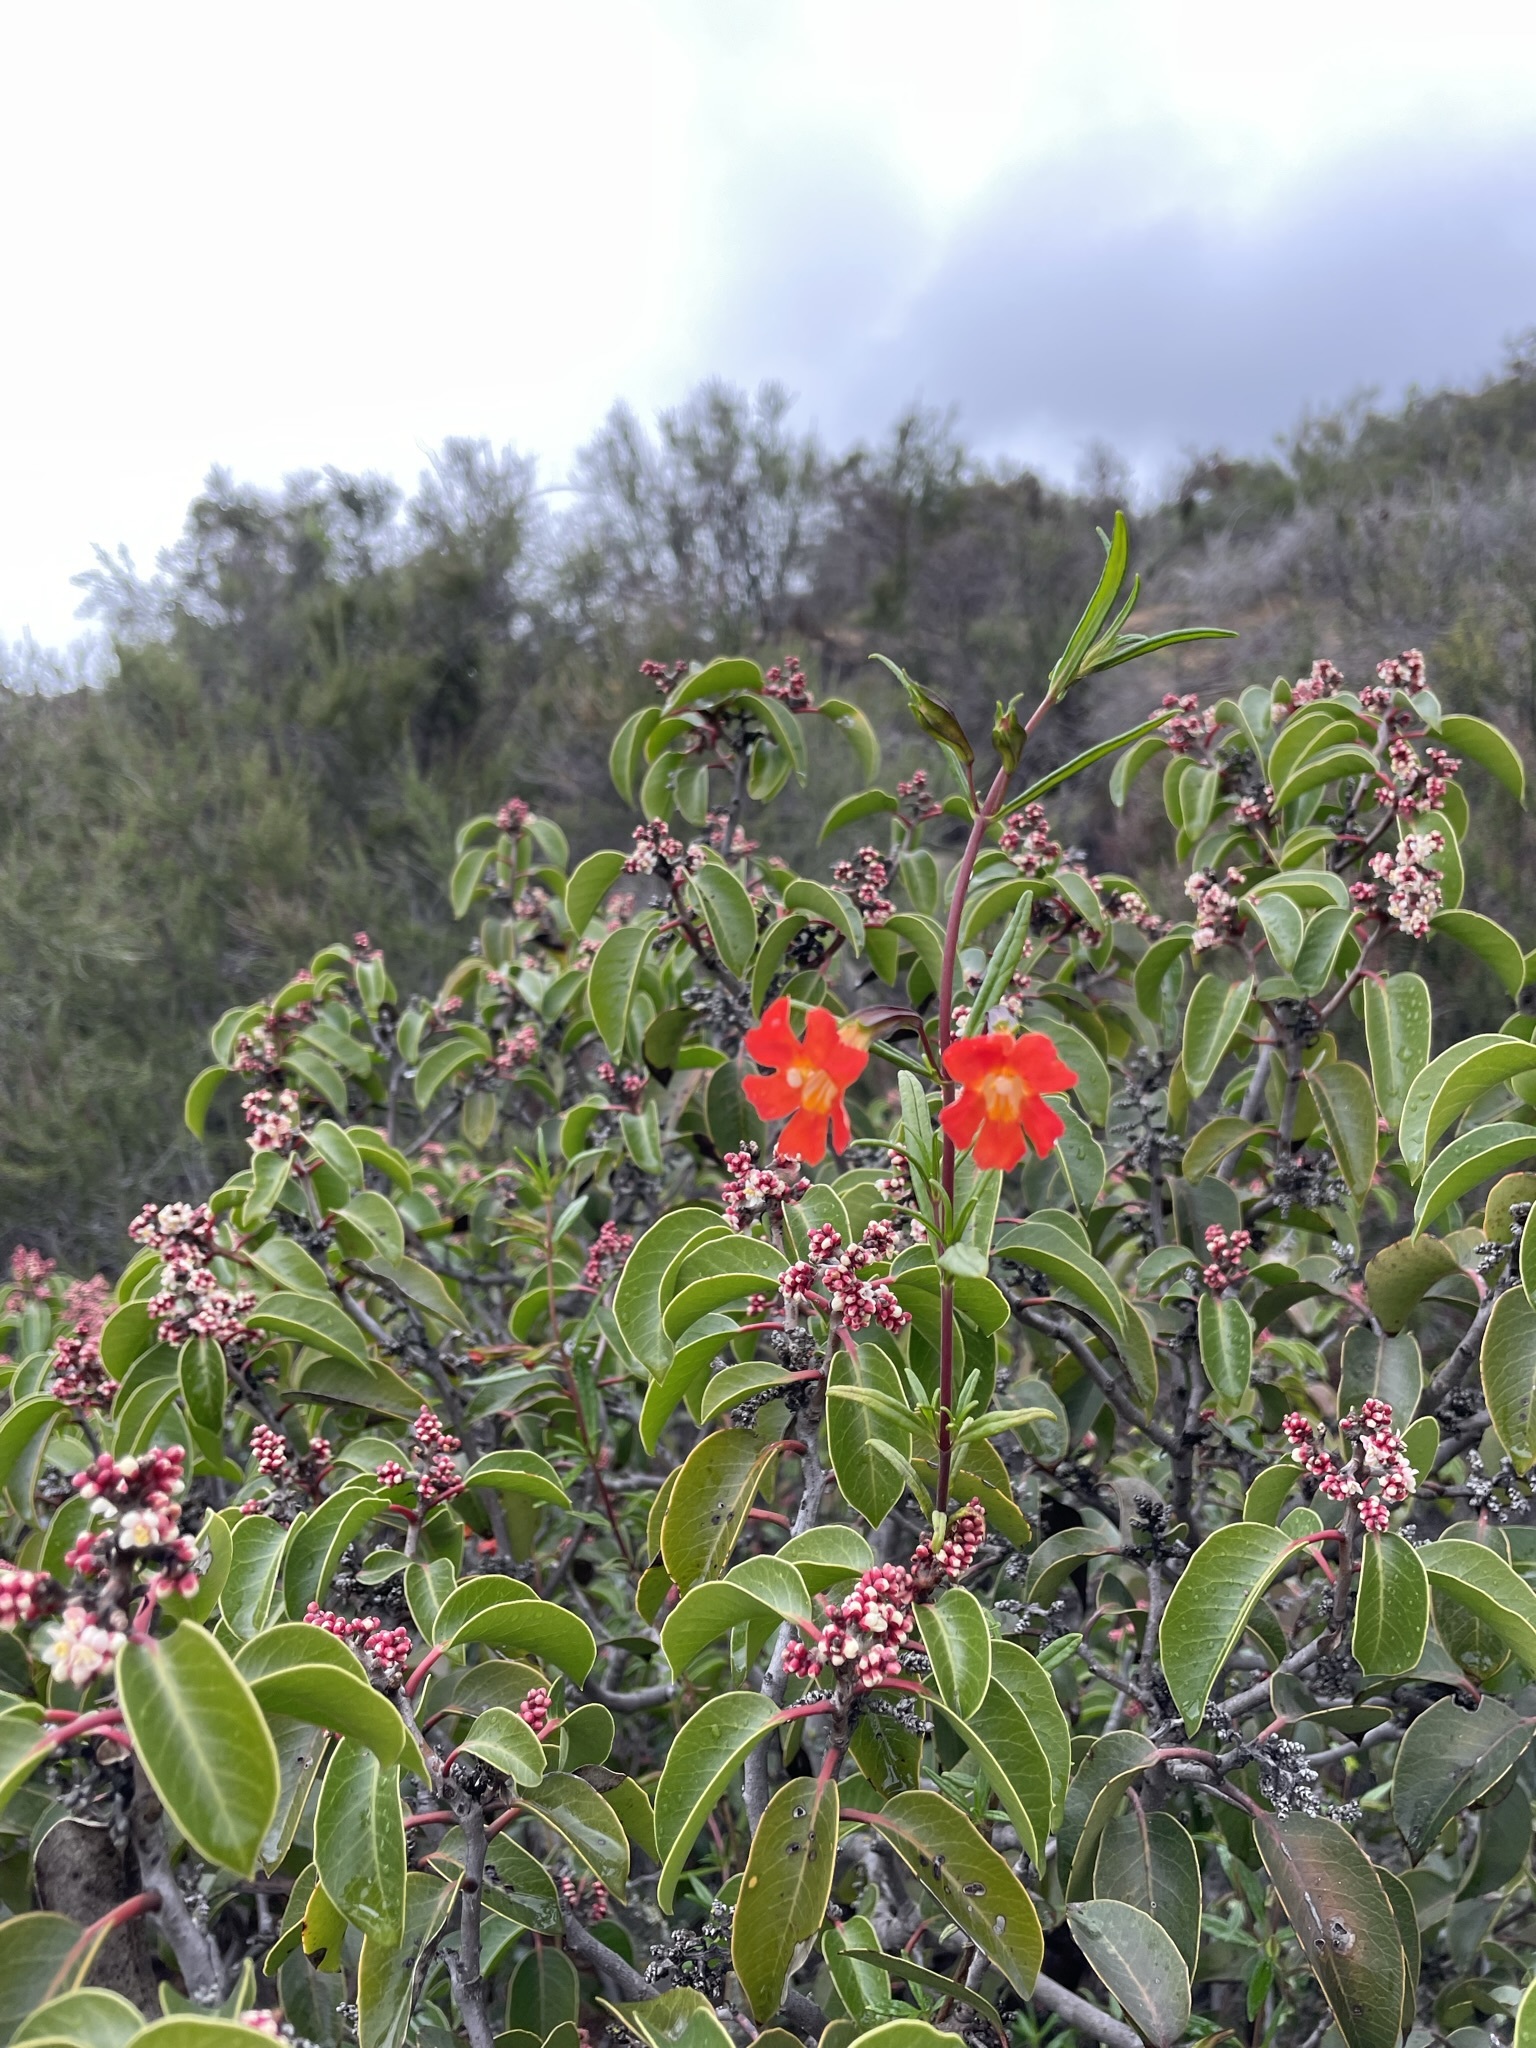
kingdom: Plantae
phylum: Tracheophyta
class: Magnoliopsida
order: Lamiales
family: Phrymaceae
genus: Diplacus
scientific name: Diplacus puniceus
